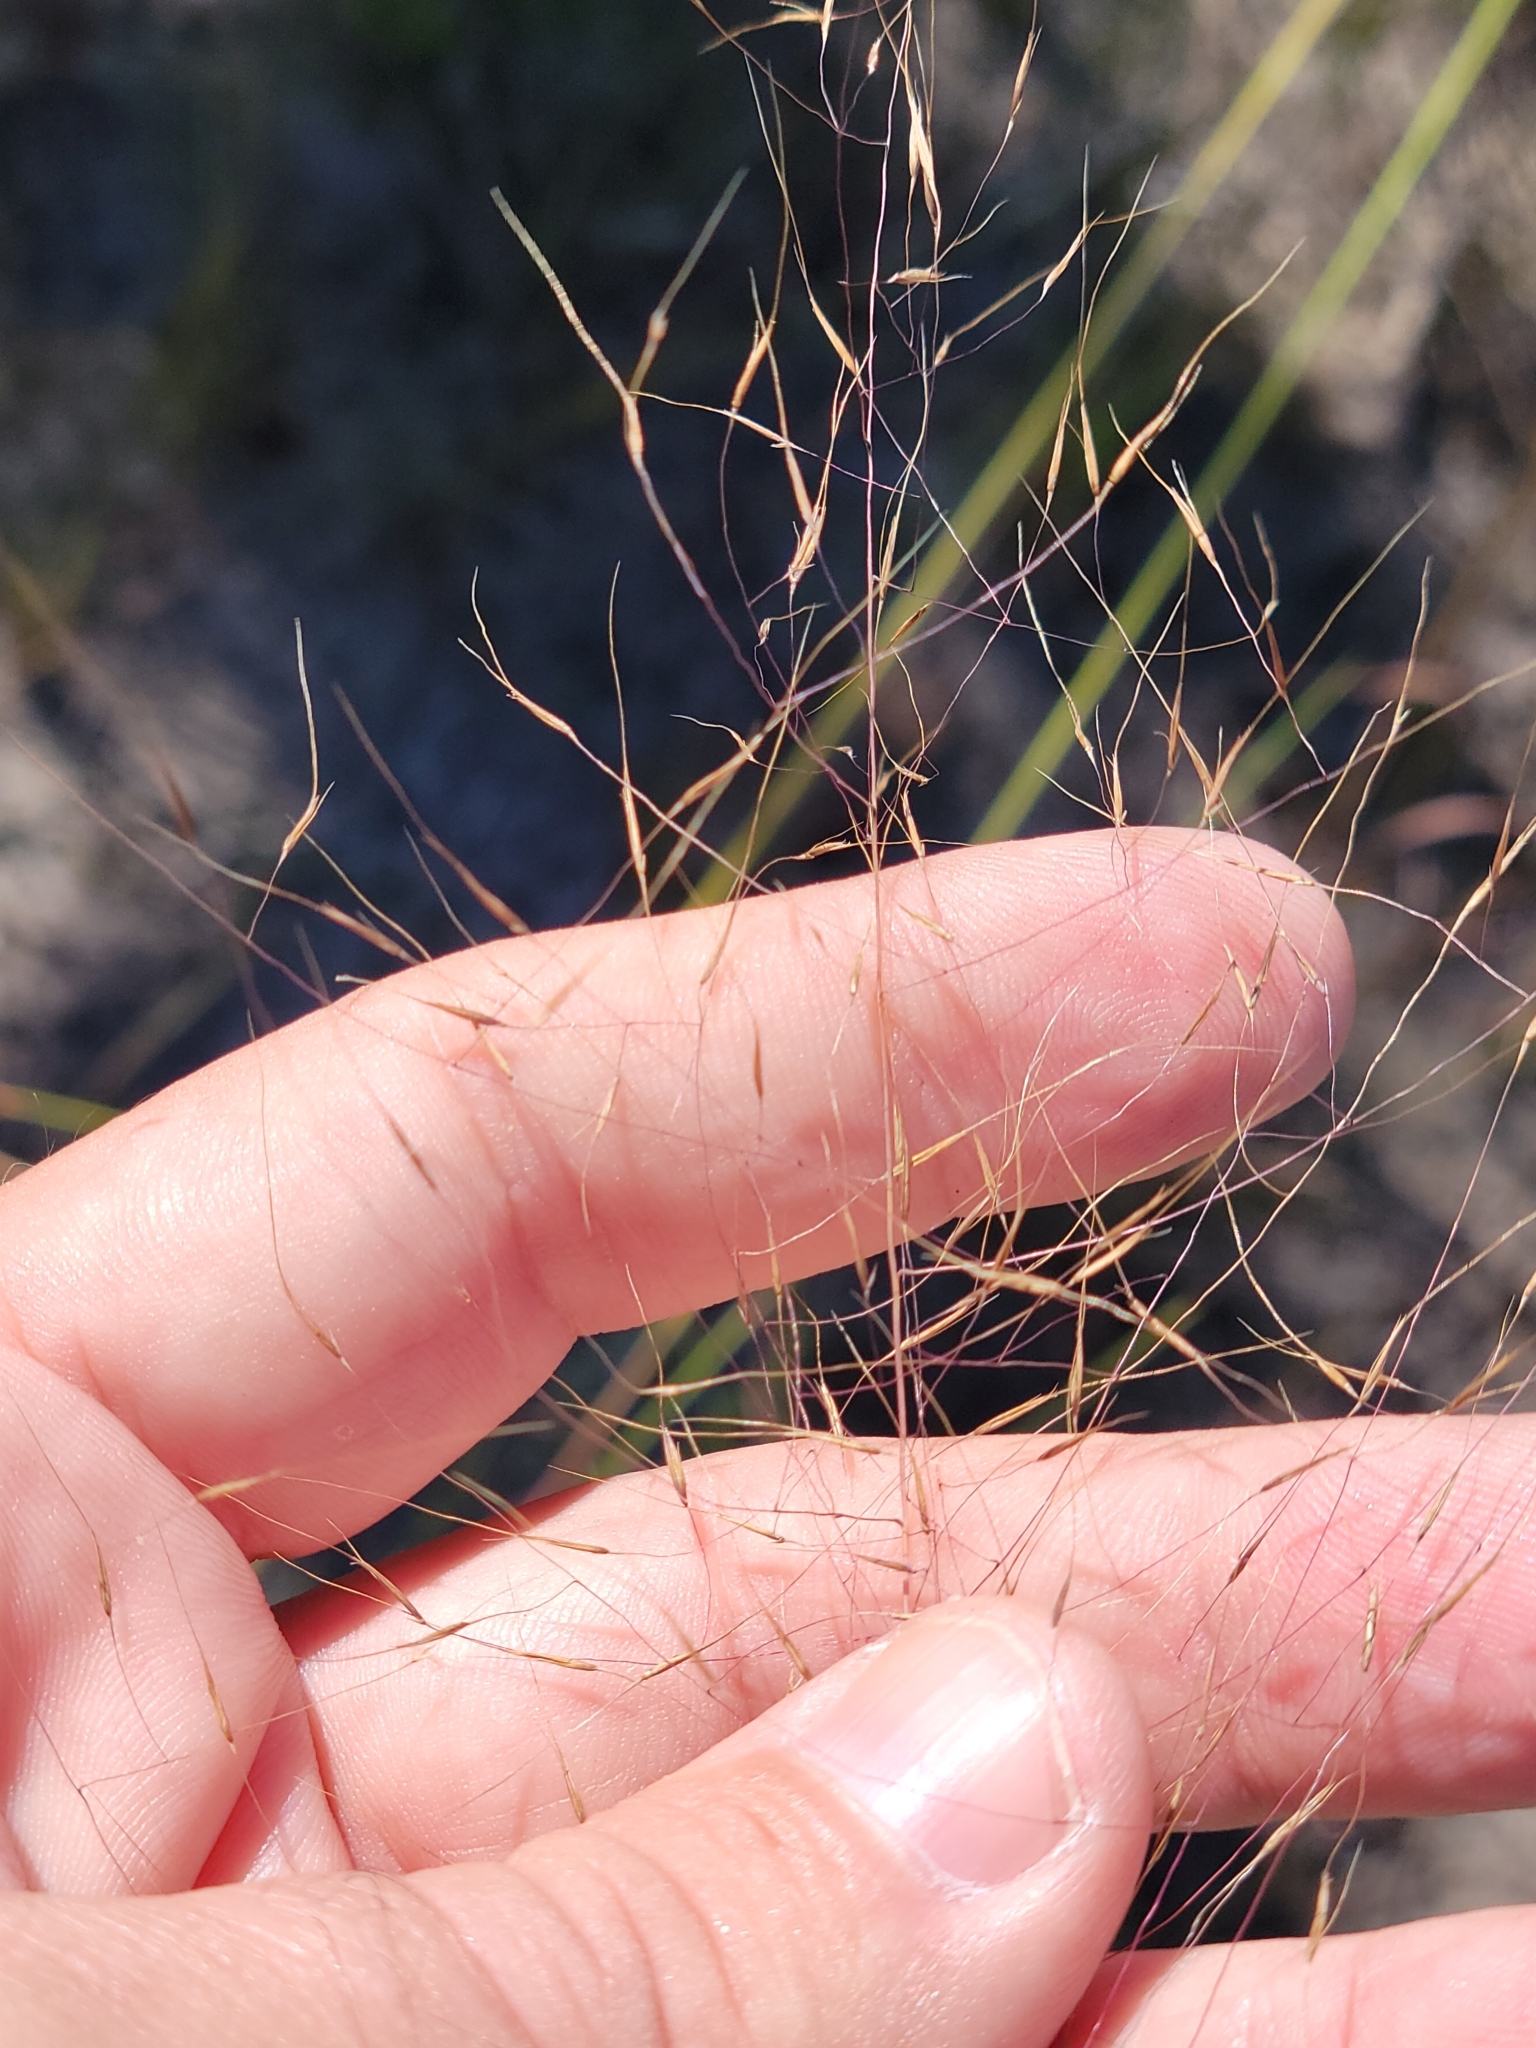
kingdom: Plantae
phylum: Tracheophyta
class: Liliopsida
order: Poales
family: Poaceae
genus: Muhlenbergia
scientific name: Muhlenbergia sericea
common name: Dune-hair grass
